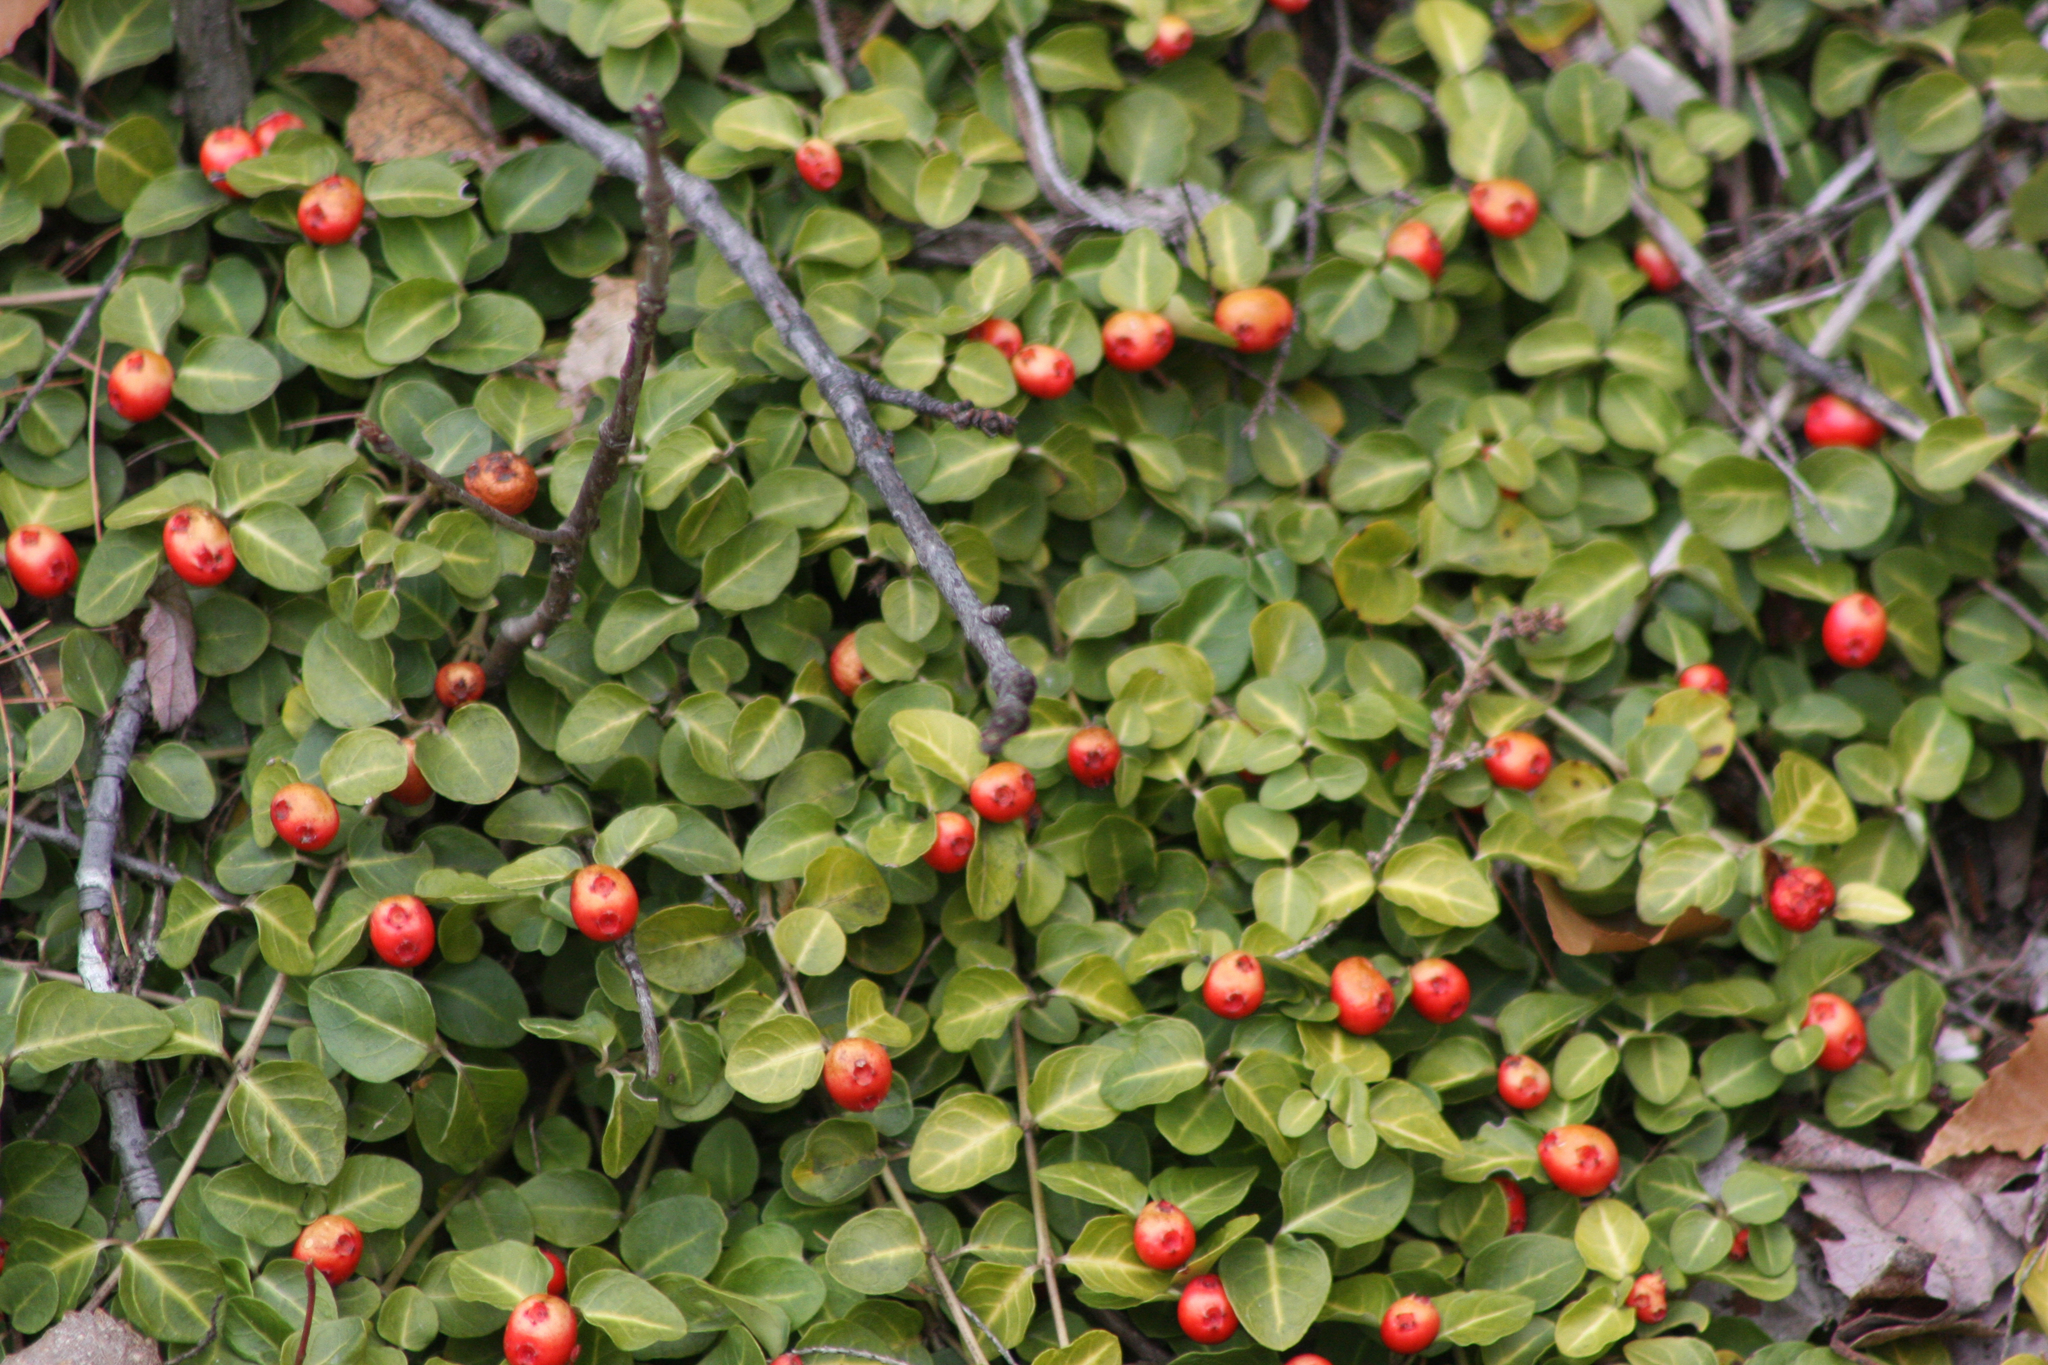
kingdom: Plantae
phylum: Tracheophyta
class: Magnoliopsida
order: Gentianales
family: Rubiaceae
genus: Mitchella
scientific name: Mitchella repens
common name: Partridge-berry
